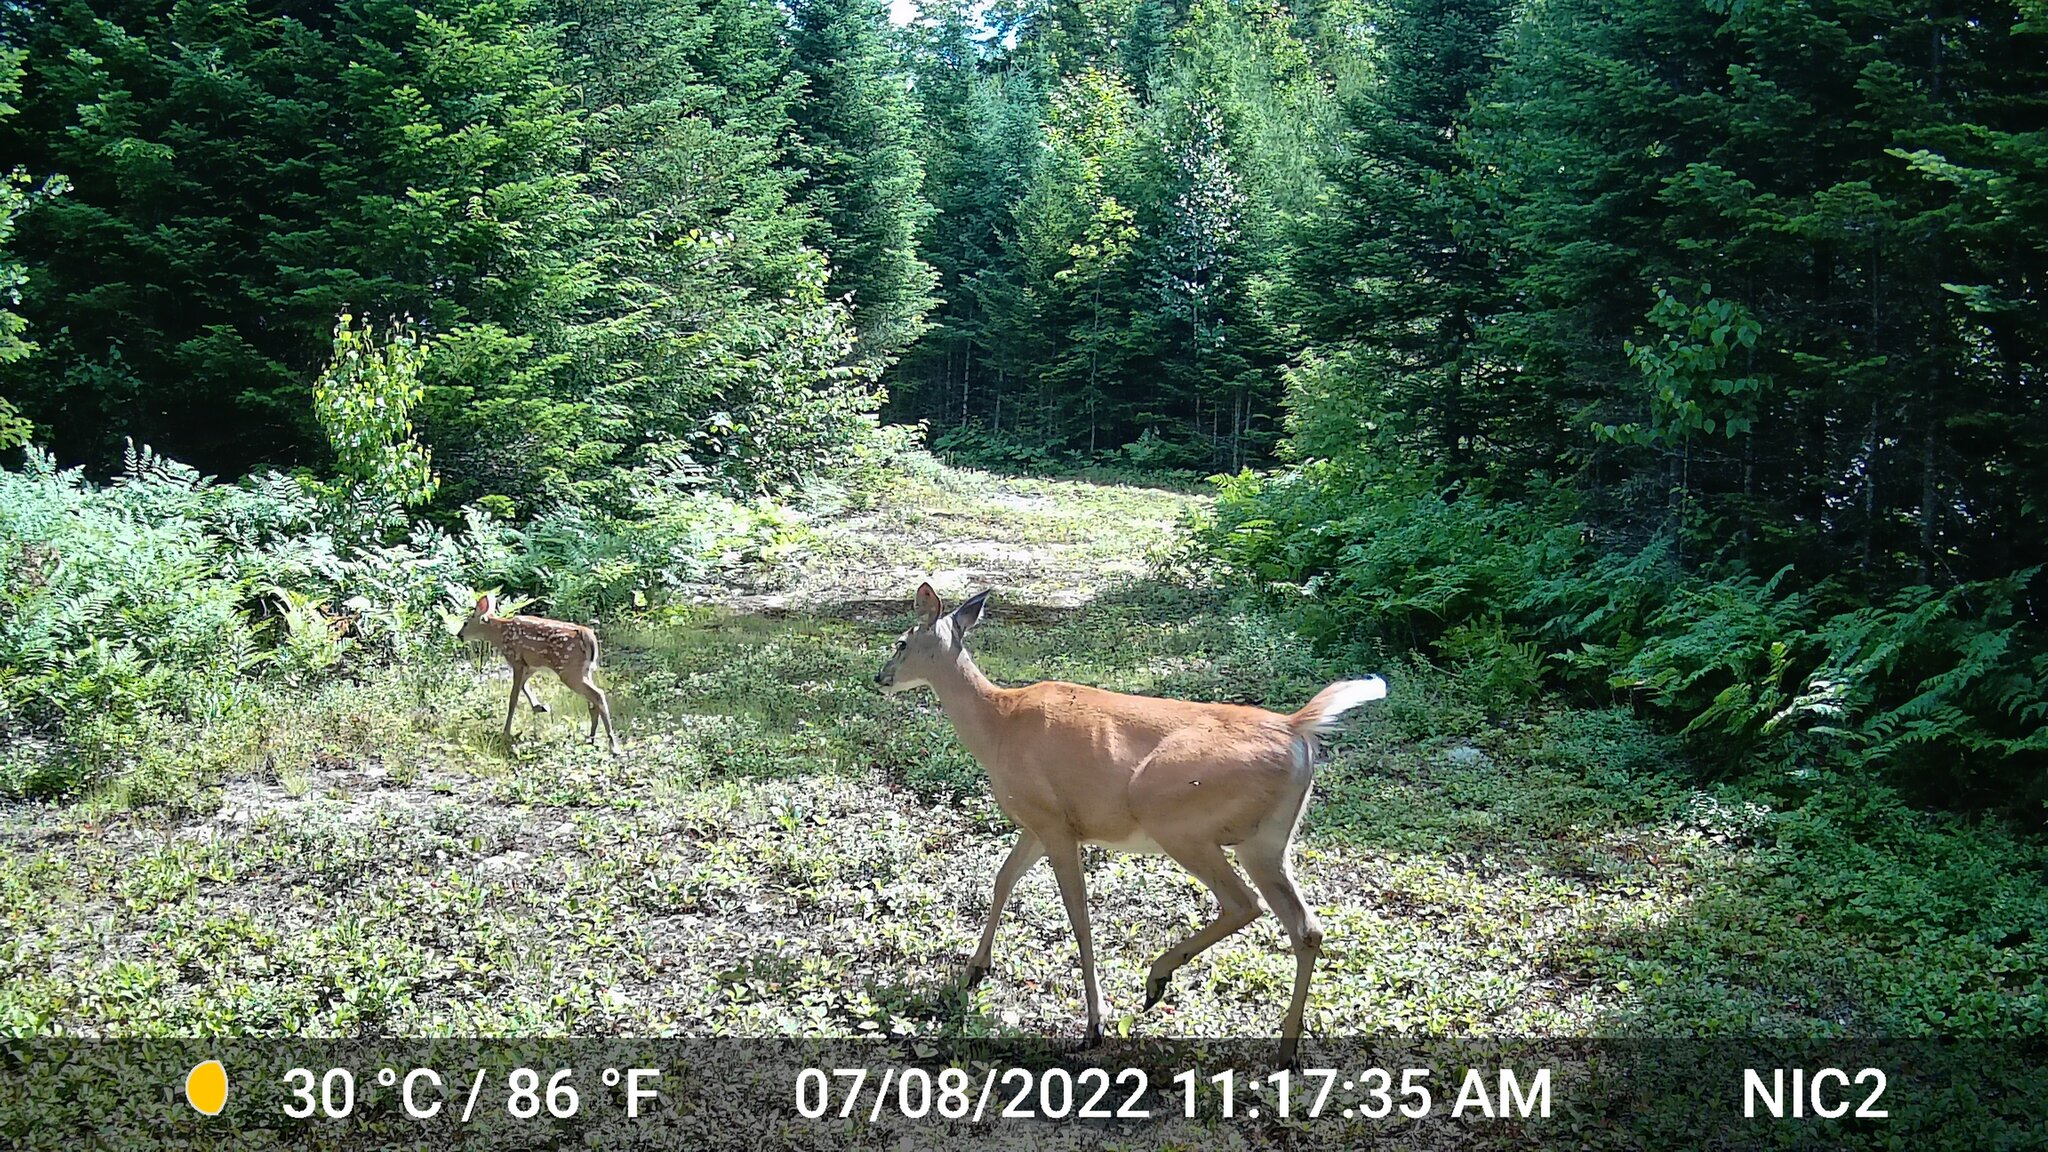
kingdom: Animalia
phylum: Chordata
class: Mammalia
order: Artiodactyla
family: Cervidae
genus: Odocoileus
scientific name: Odocoileus virginianus
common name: White-tailed deer
